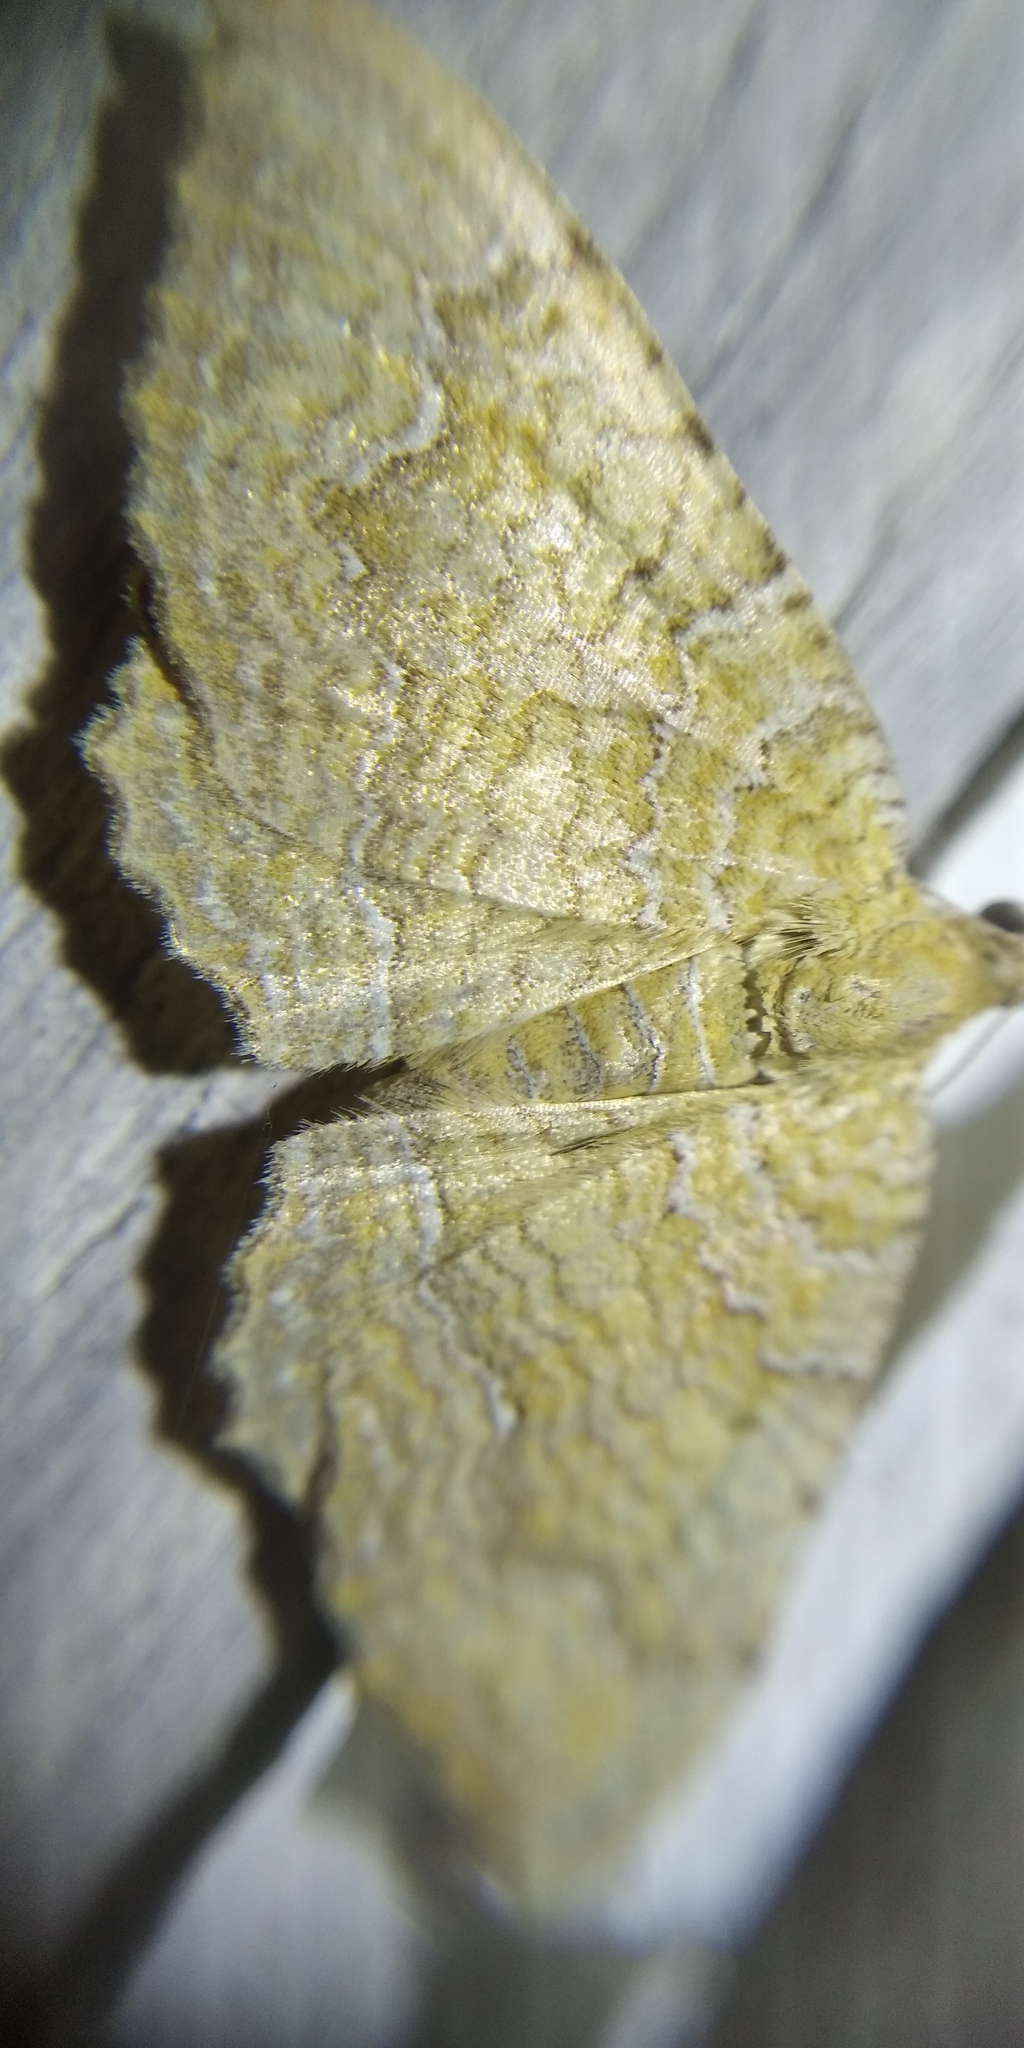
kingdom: Animalia
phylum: Arthropoda
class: Insecta
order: Lepidoptera
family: Geometridae
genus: Camptogramma
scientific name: Camptogramma bilineata
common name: Yellow shell
